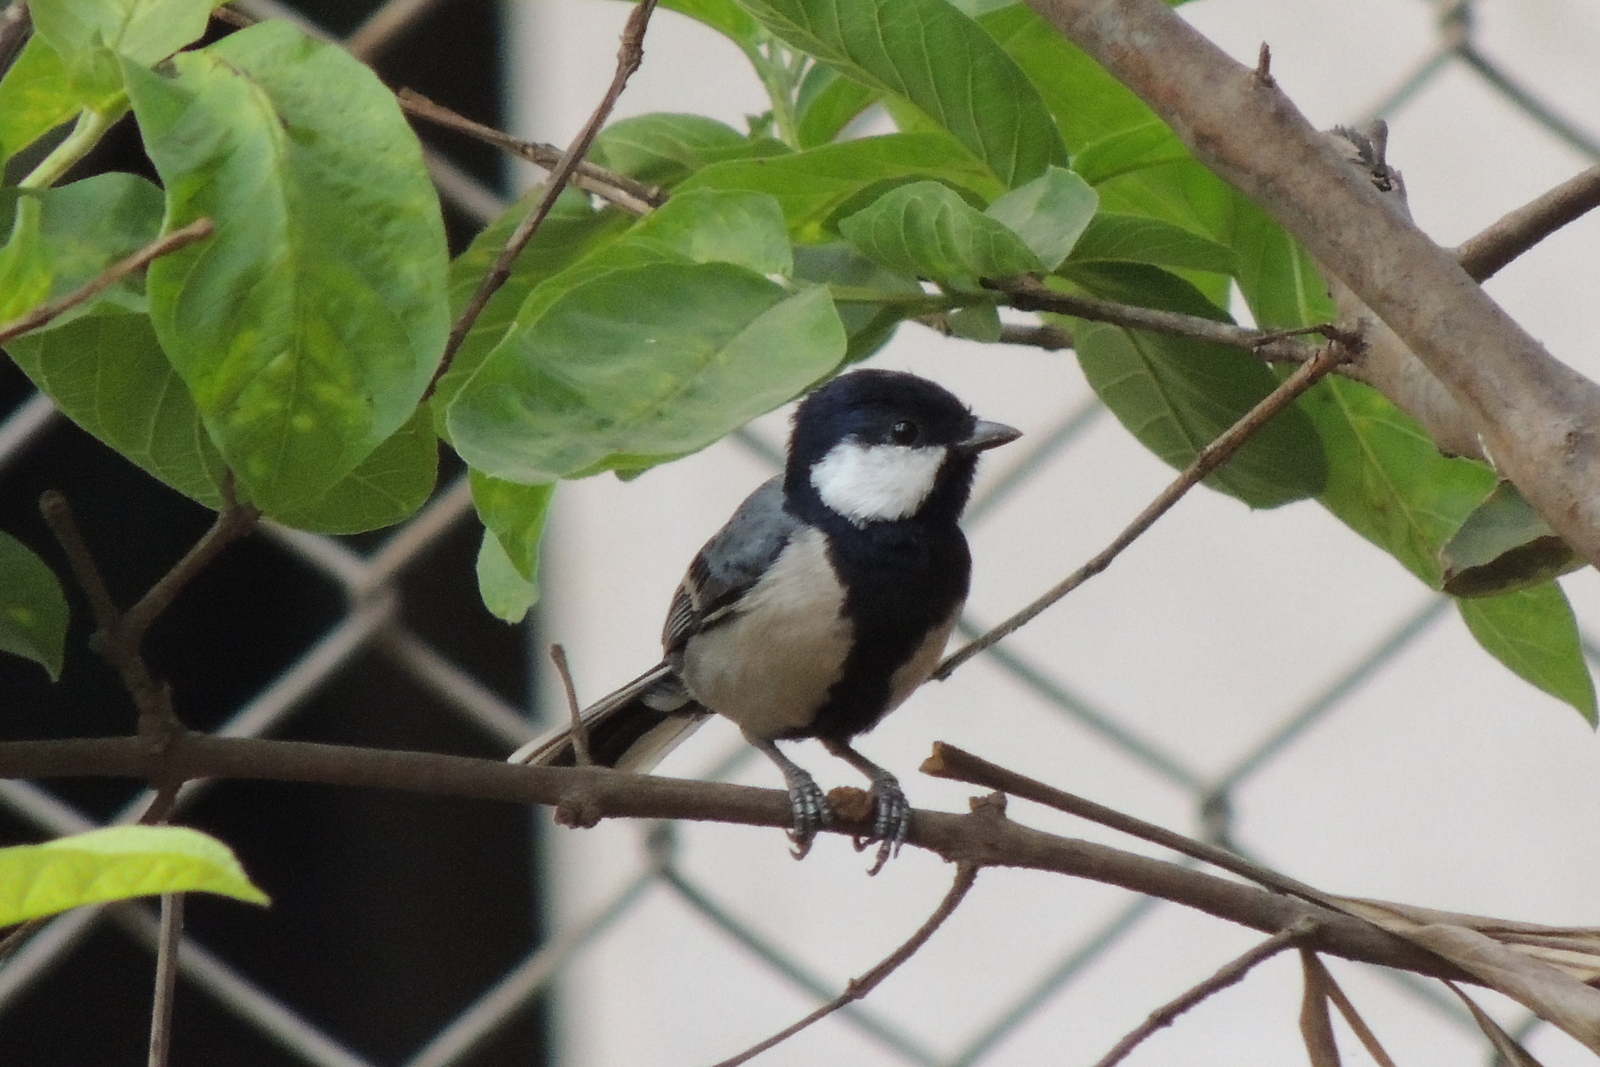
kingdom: Animalia
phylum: Chordata
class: Aves
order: Passeriformes
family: Paridae
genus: Parus
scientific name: Parus cinereus
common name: Cinereous tit
